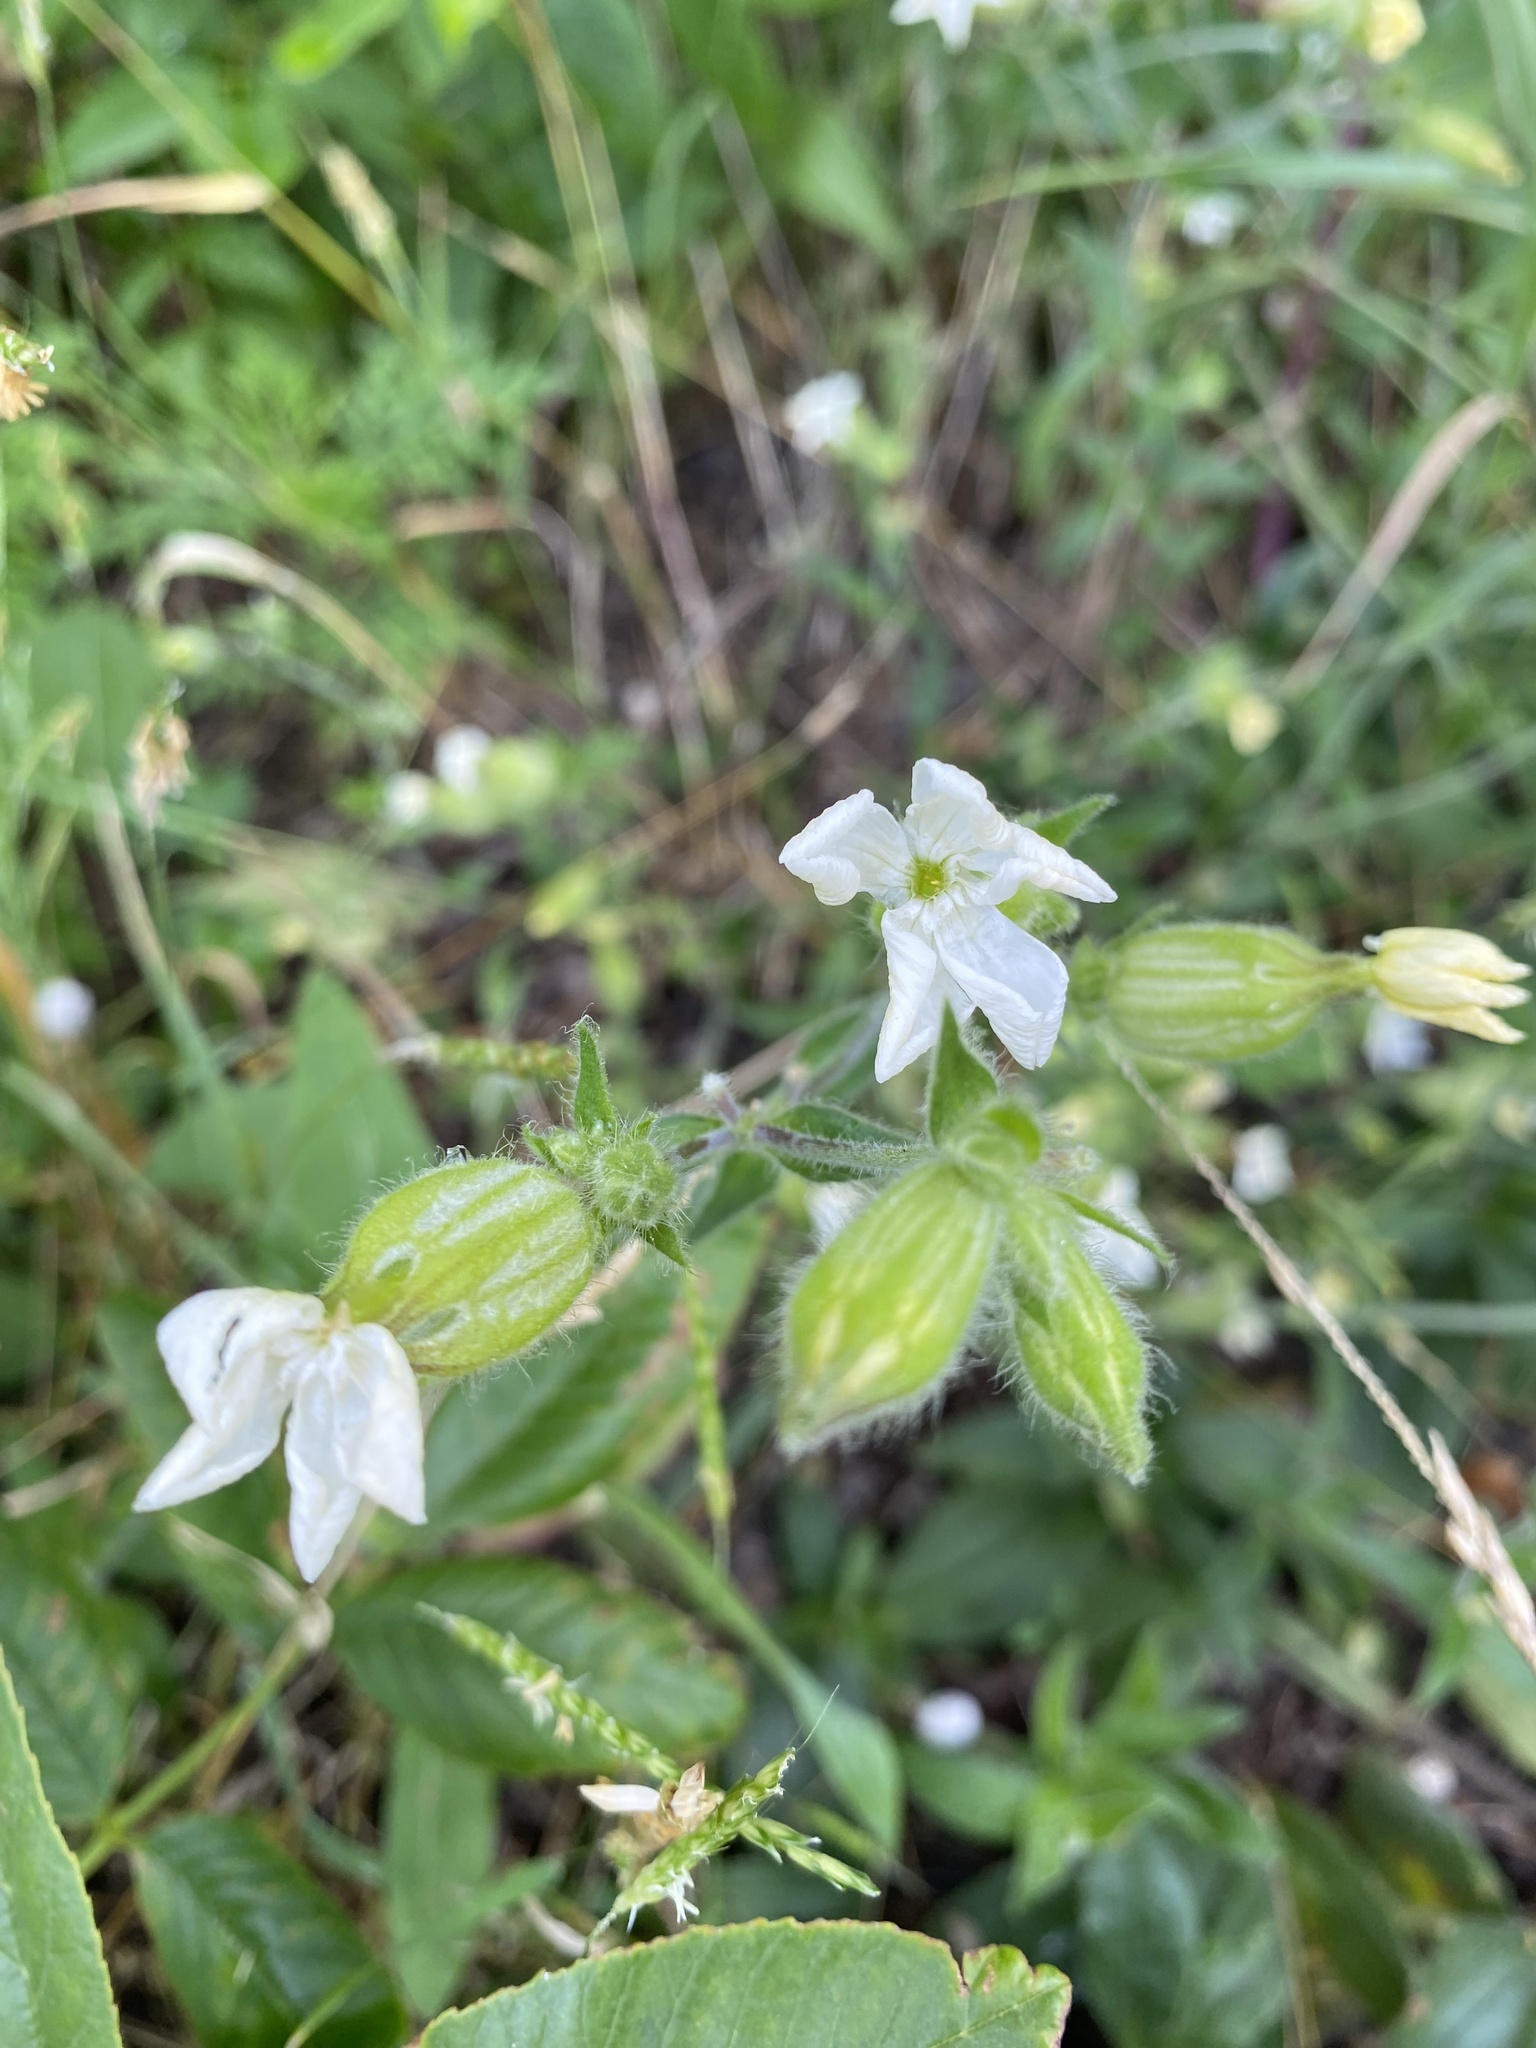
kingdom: Plantae
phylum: Tracheophyta
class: Magnoliopsida
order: Caryophyllales
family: Caryophyllaceae
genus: Silene
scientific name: Silene latifolia
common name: White campion
